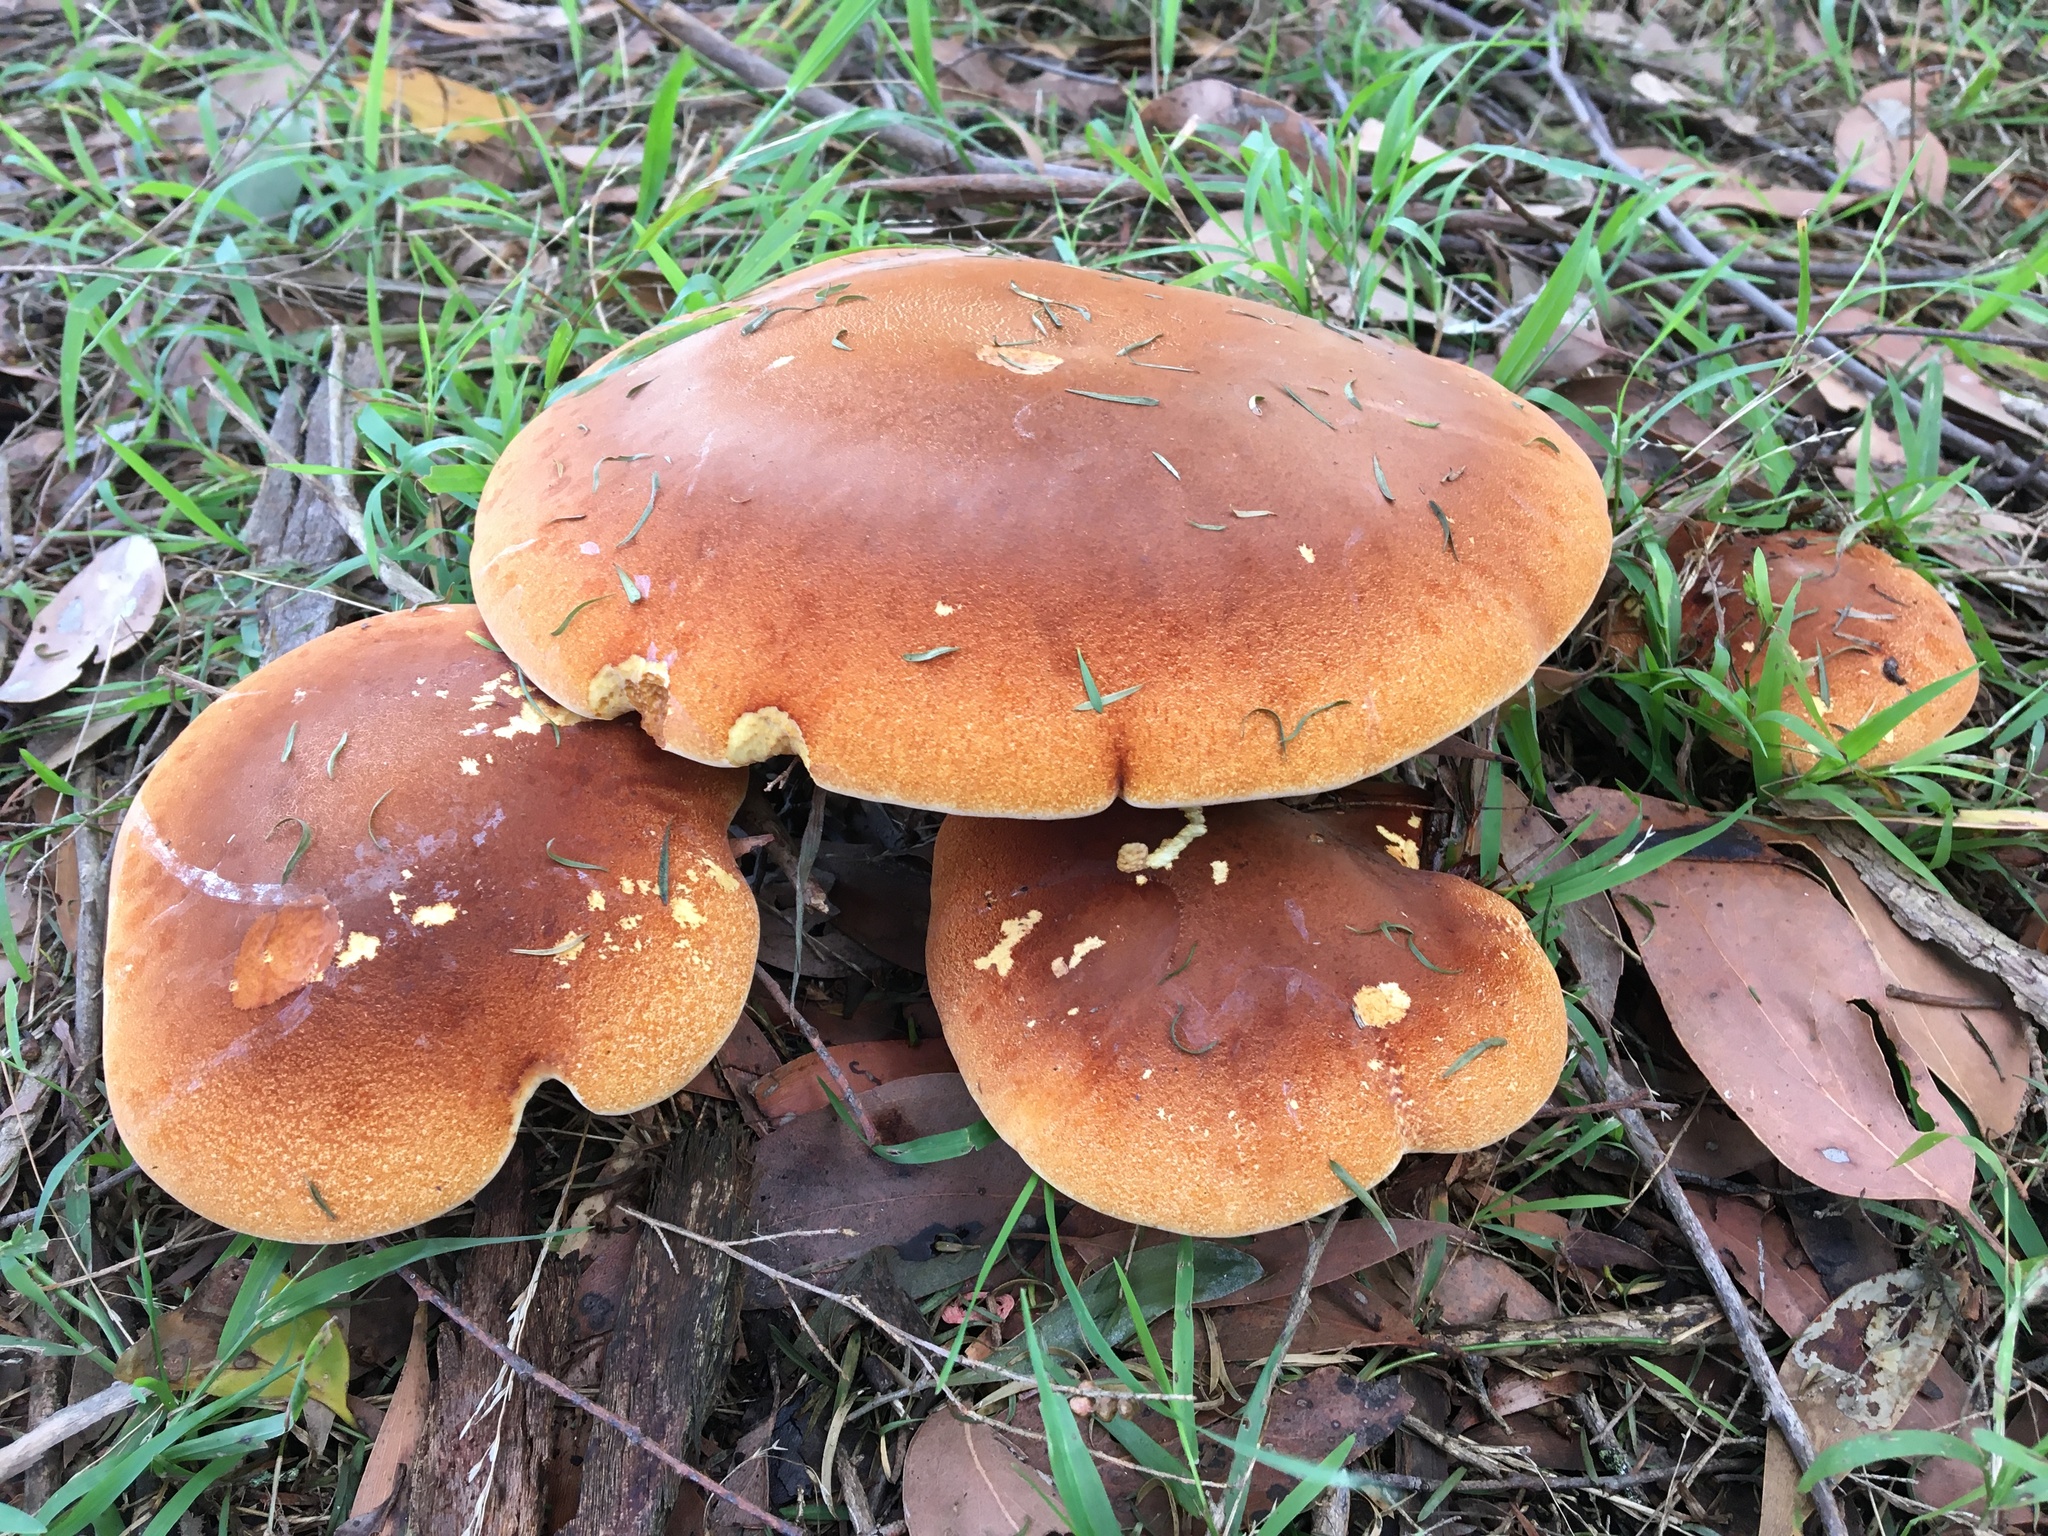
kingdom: Fungi
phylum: Basidiomycota
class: Agaricomycetes
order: Polyporales
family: Fomitopsidaceae
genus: Fomitopsis
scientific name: Fomitopsis
